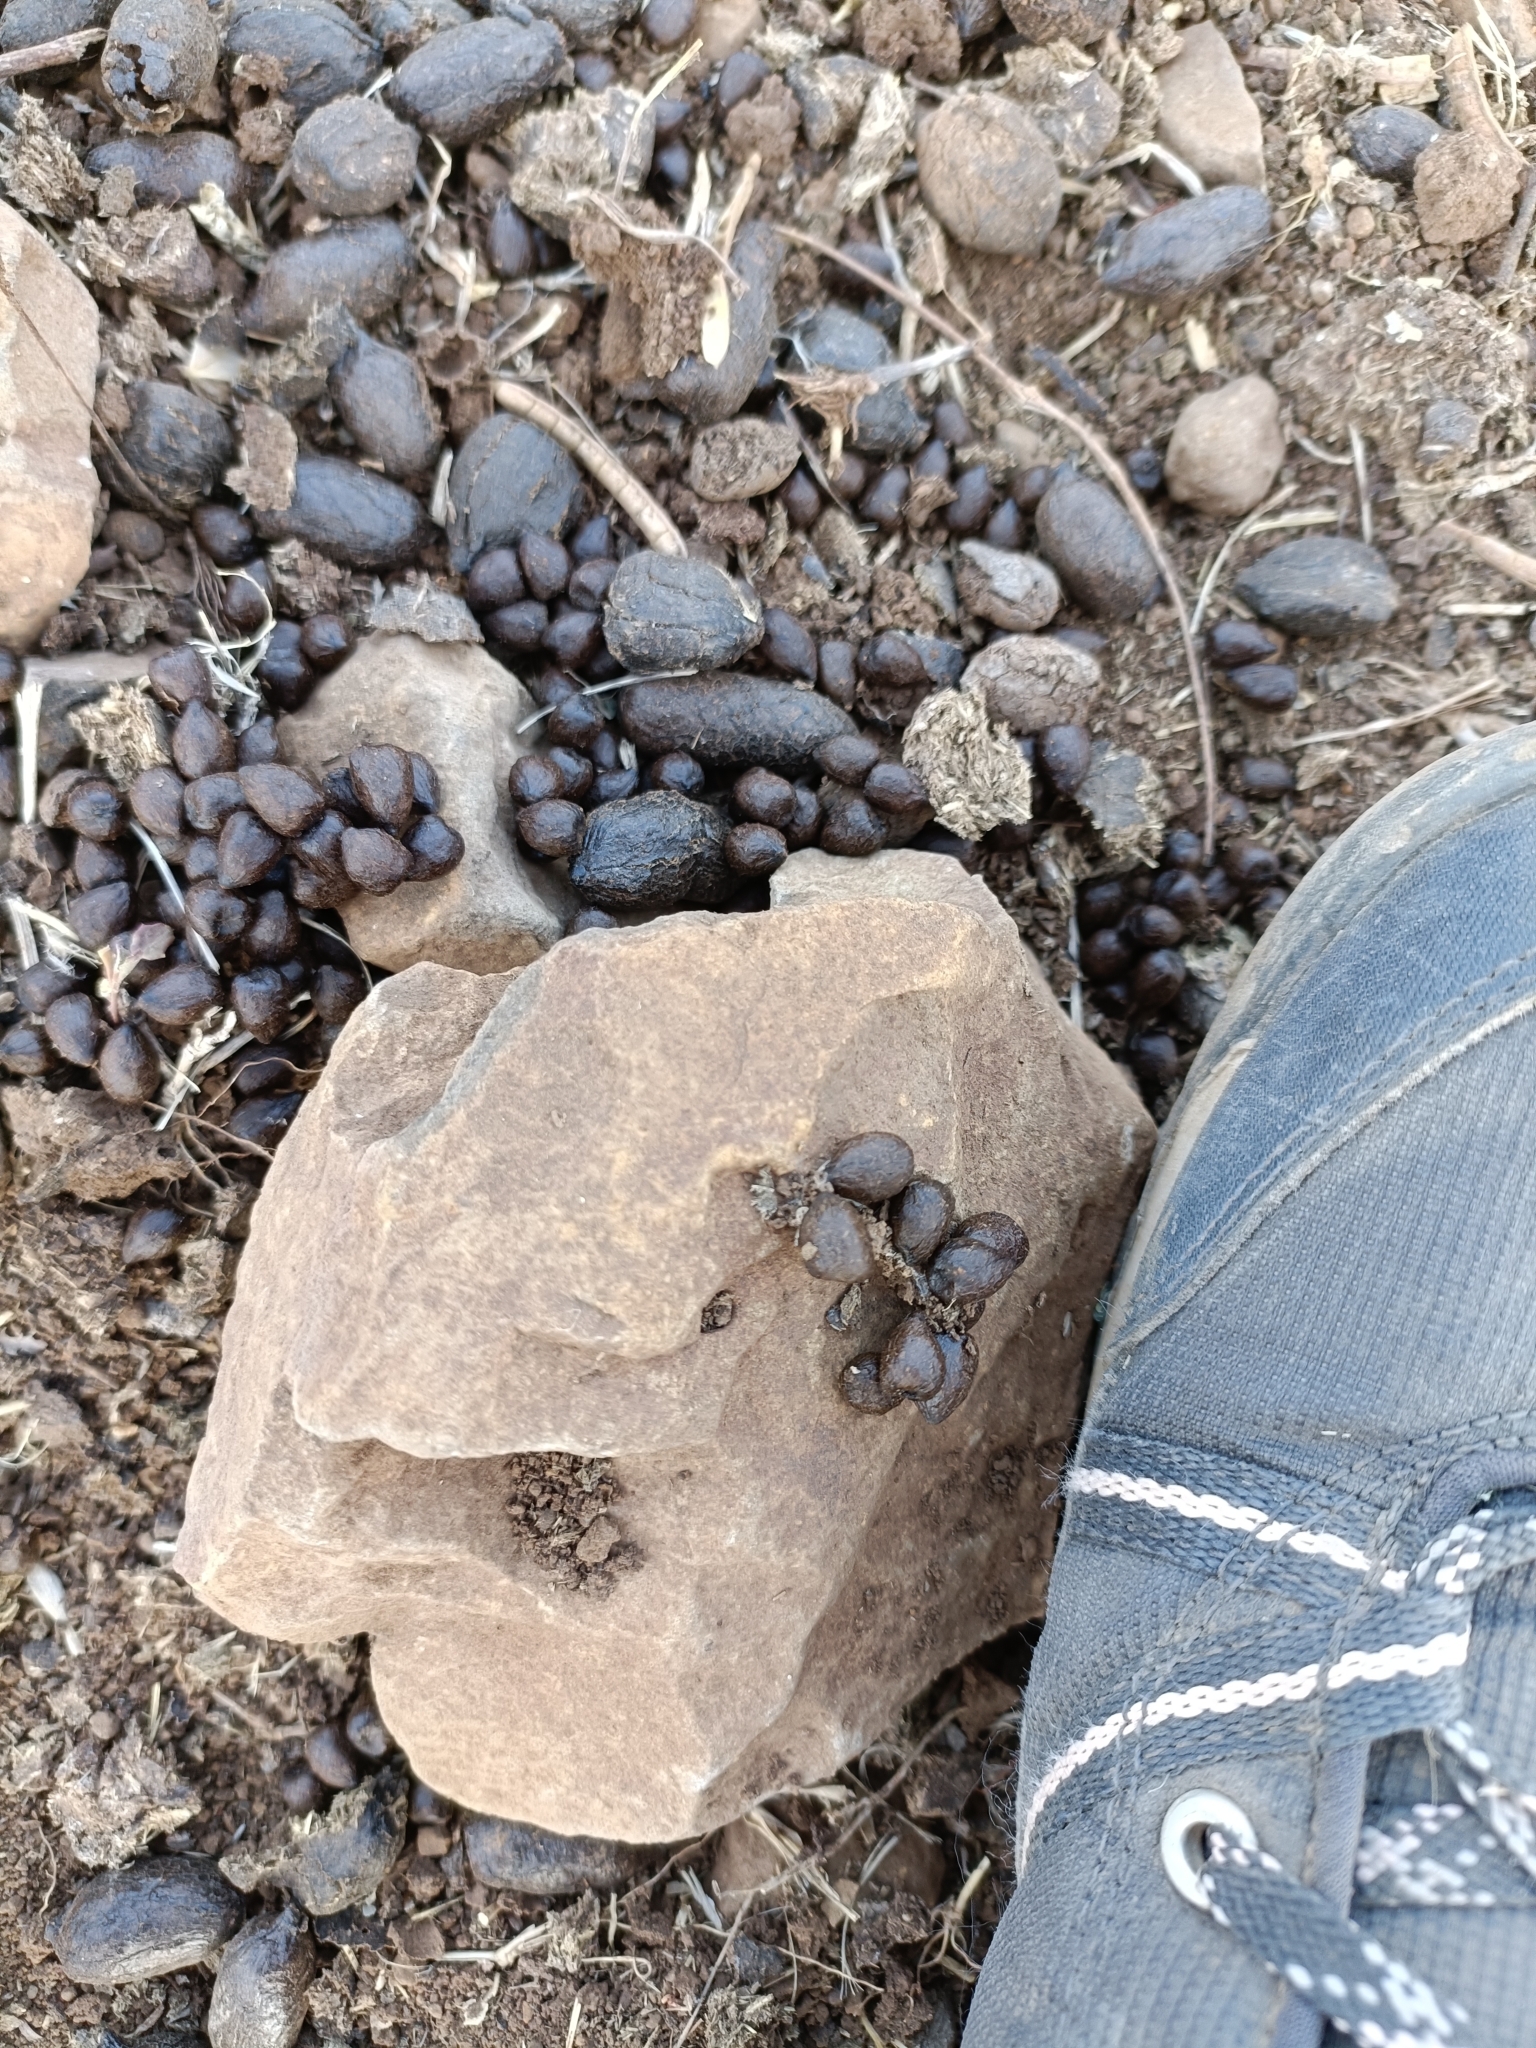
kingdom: Animalia
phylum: Chordata
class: Mammalia
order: Artiodactyla
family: Bovidae
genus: Gazella
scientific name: Gazella bennettii
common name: Indian gazelle
